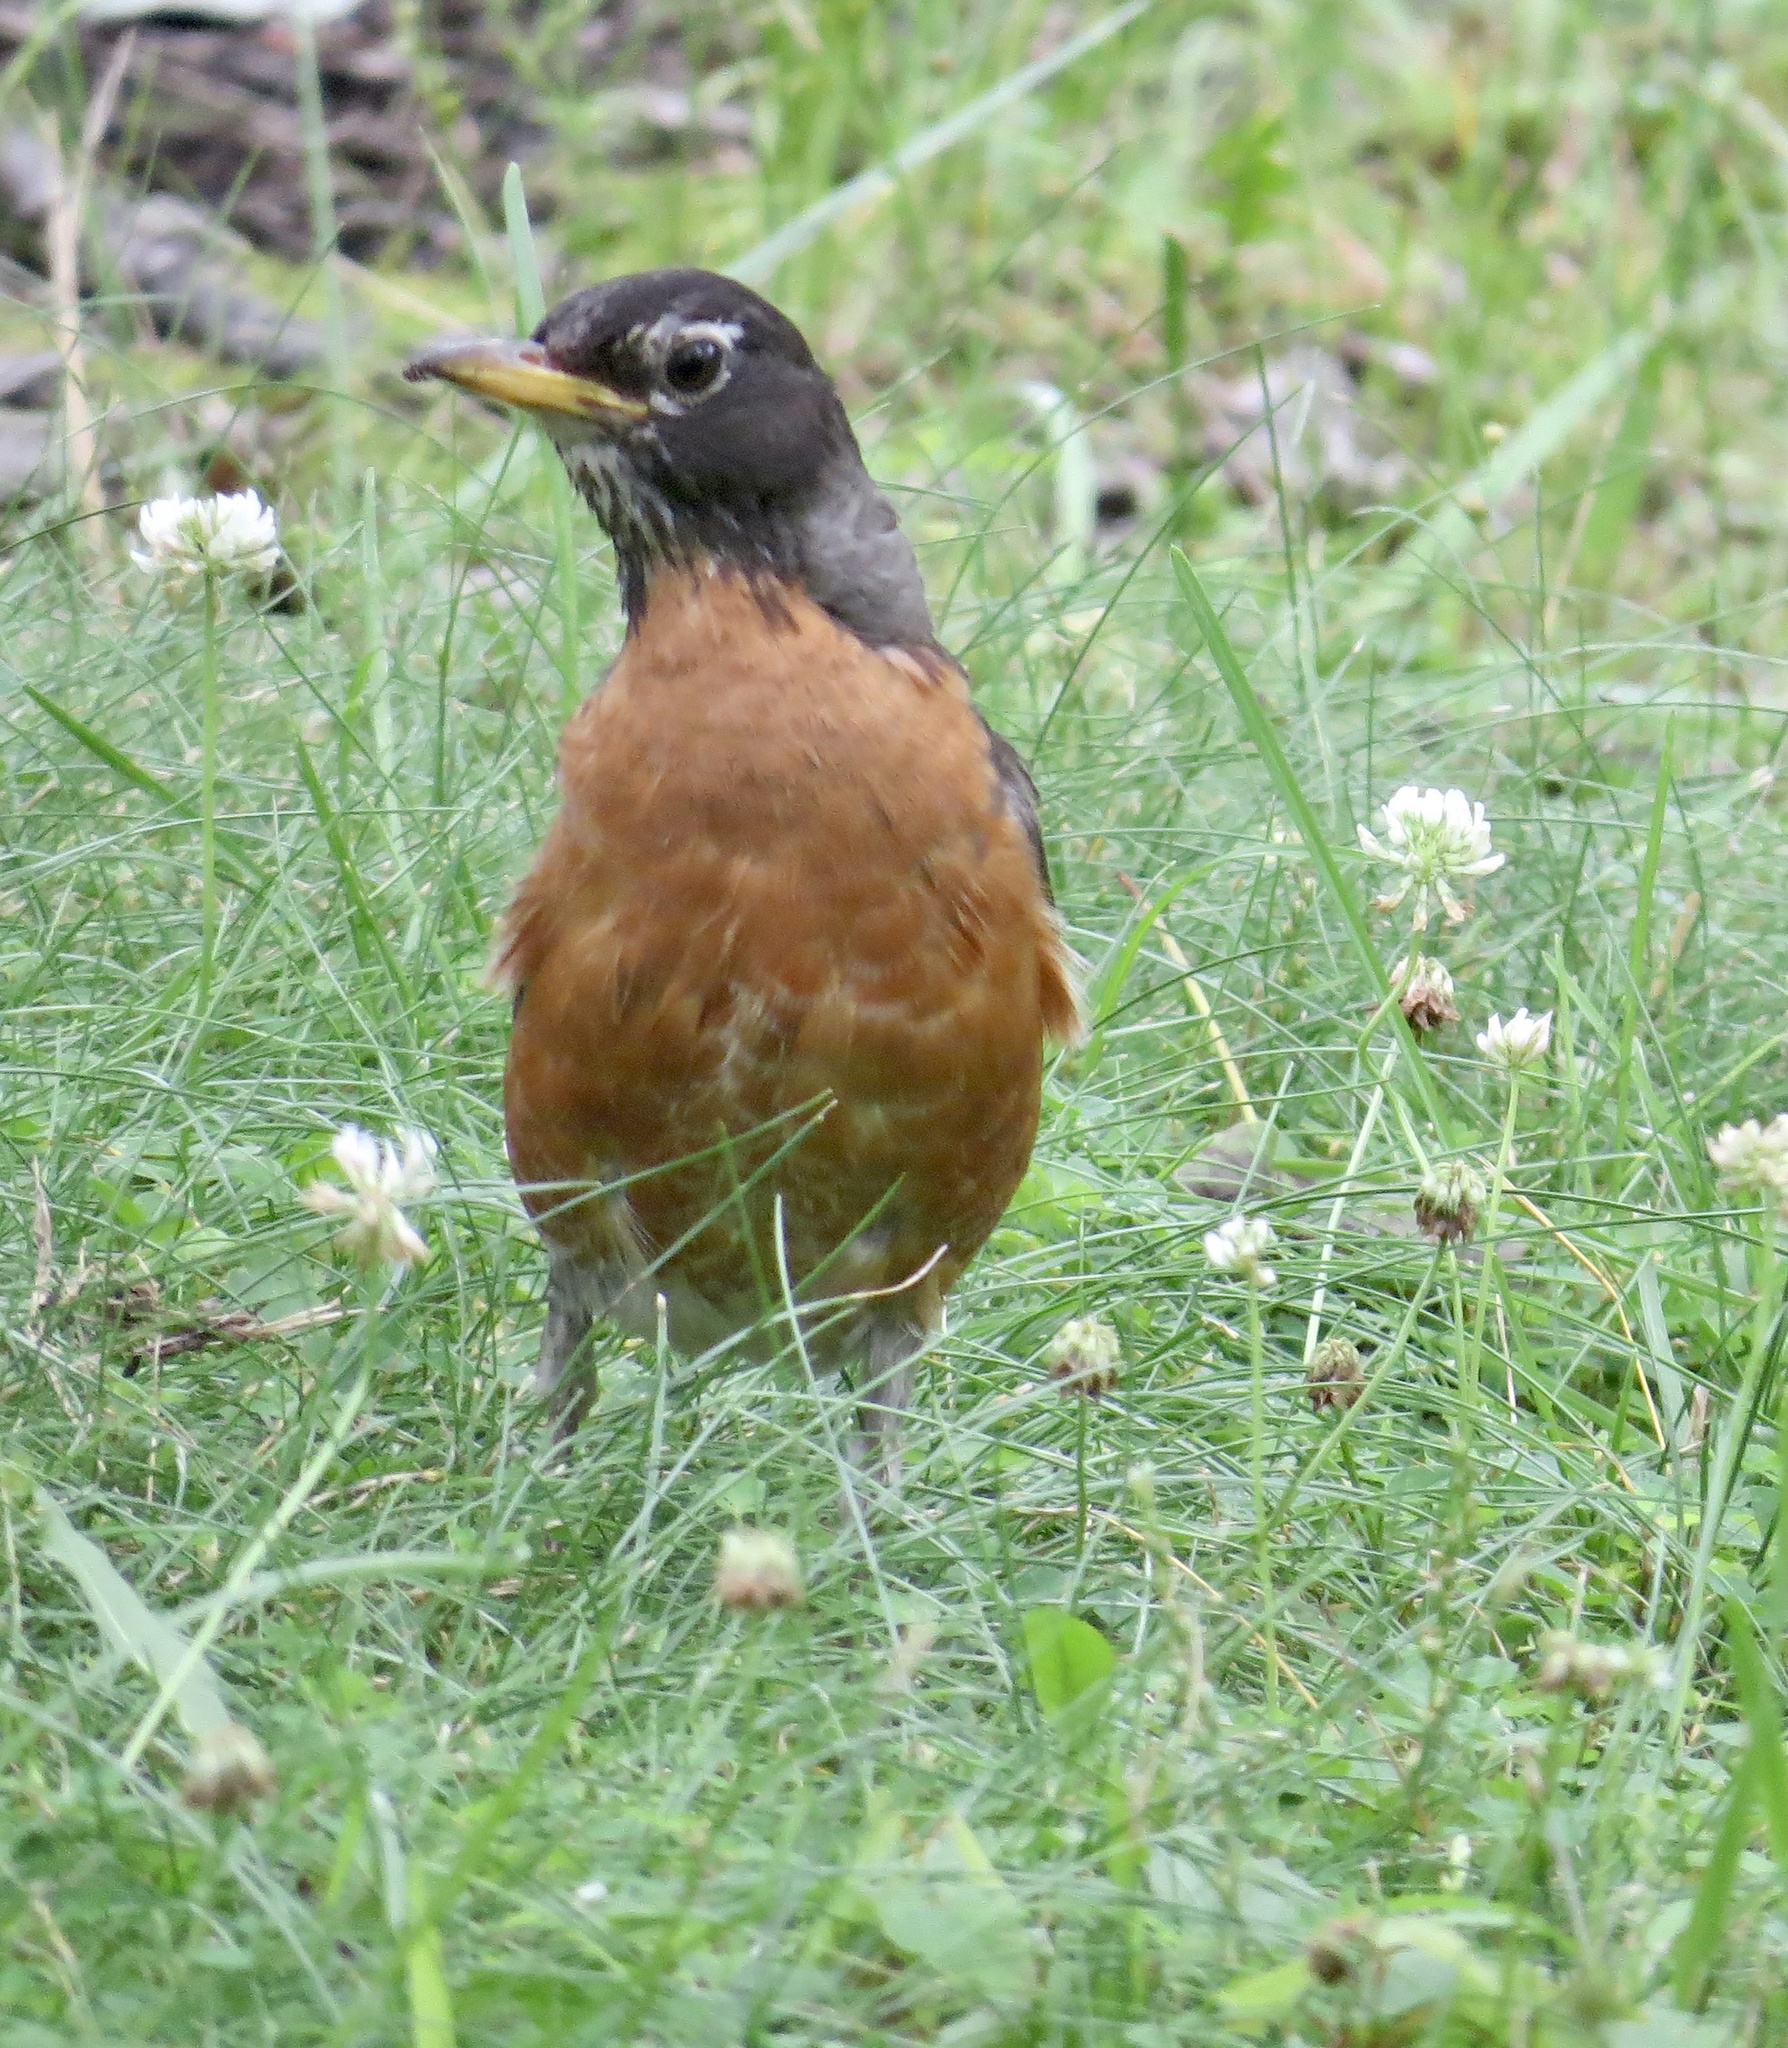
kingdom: Animalia
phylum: Chordata
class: Aves
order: Passeriformes
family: Turdidae
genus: Turdus
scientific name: Turdus migratorius
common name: American robin
